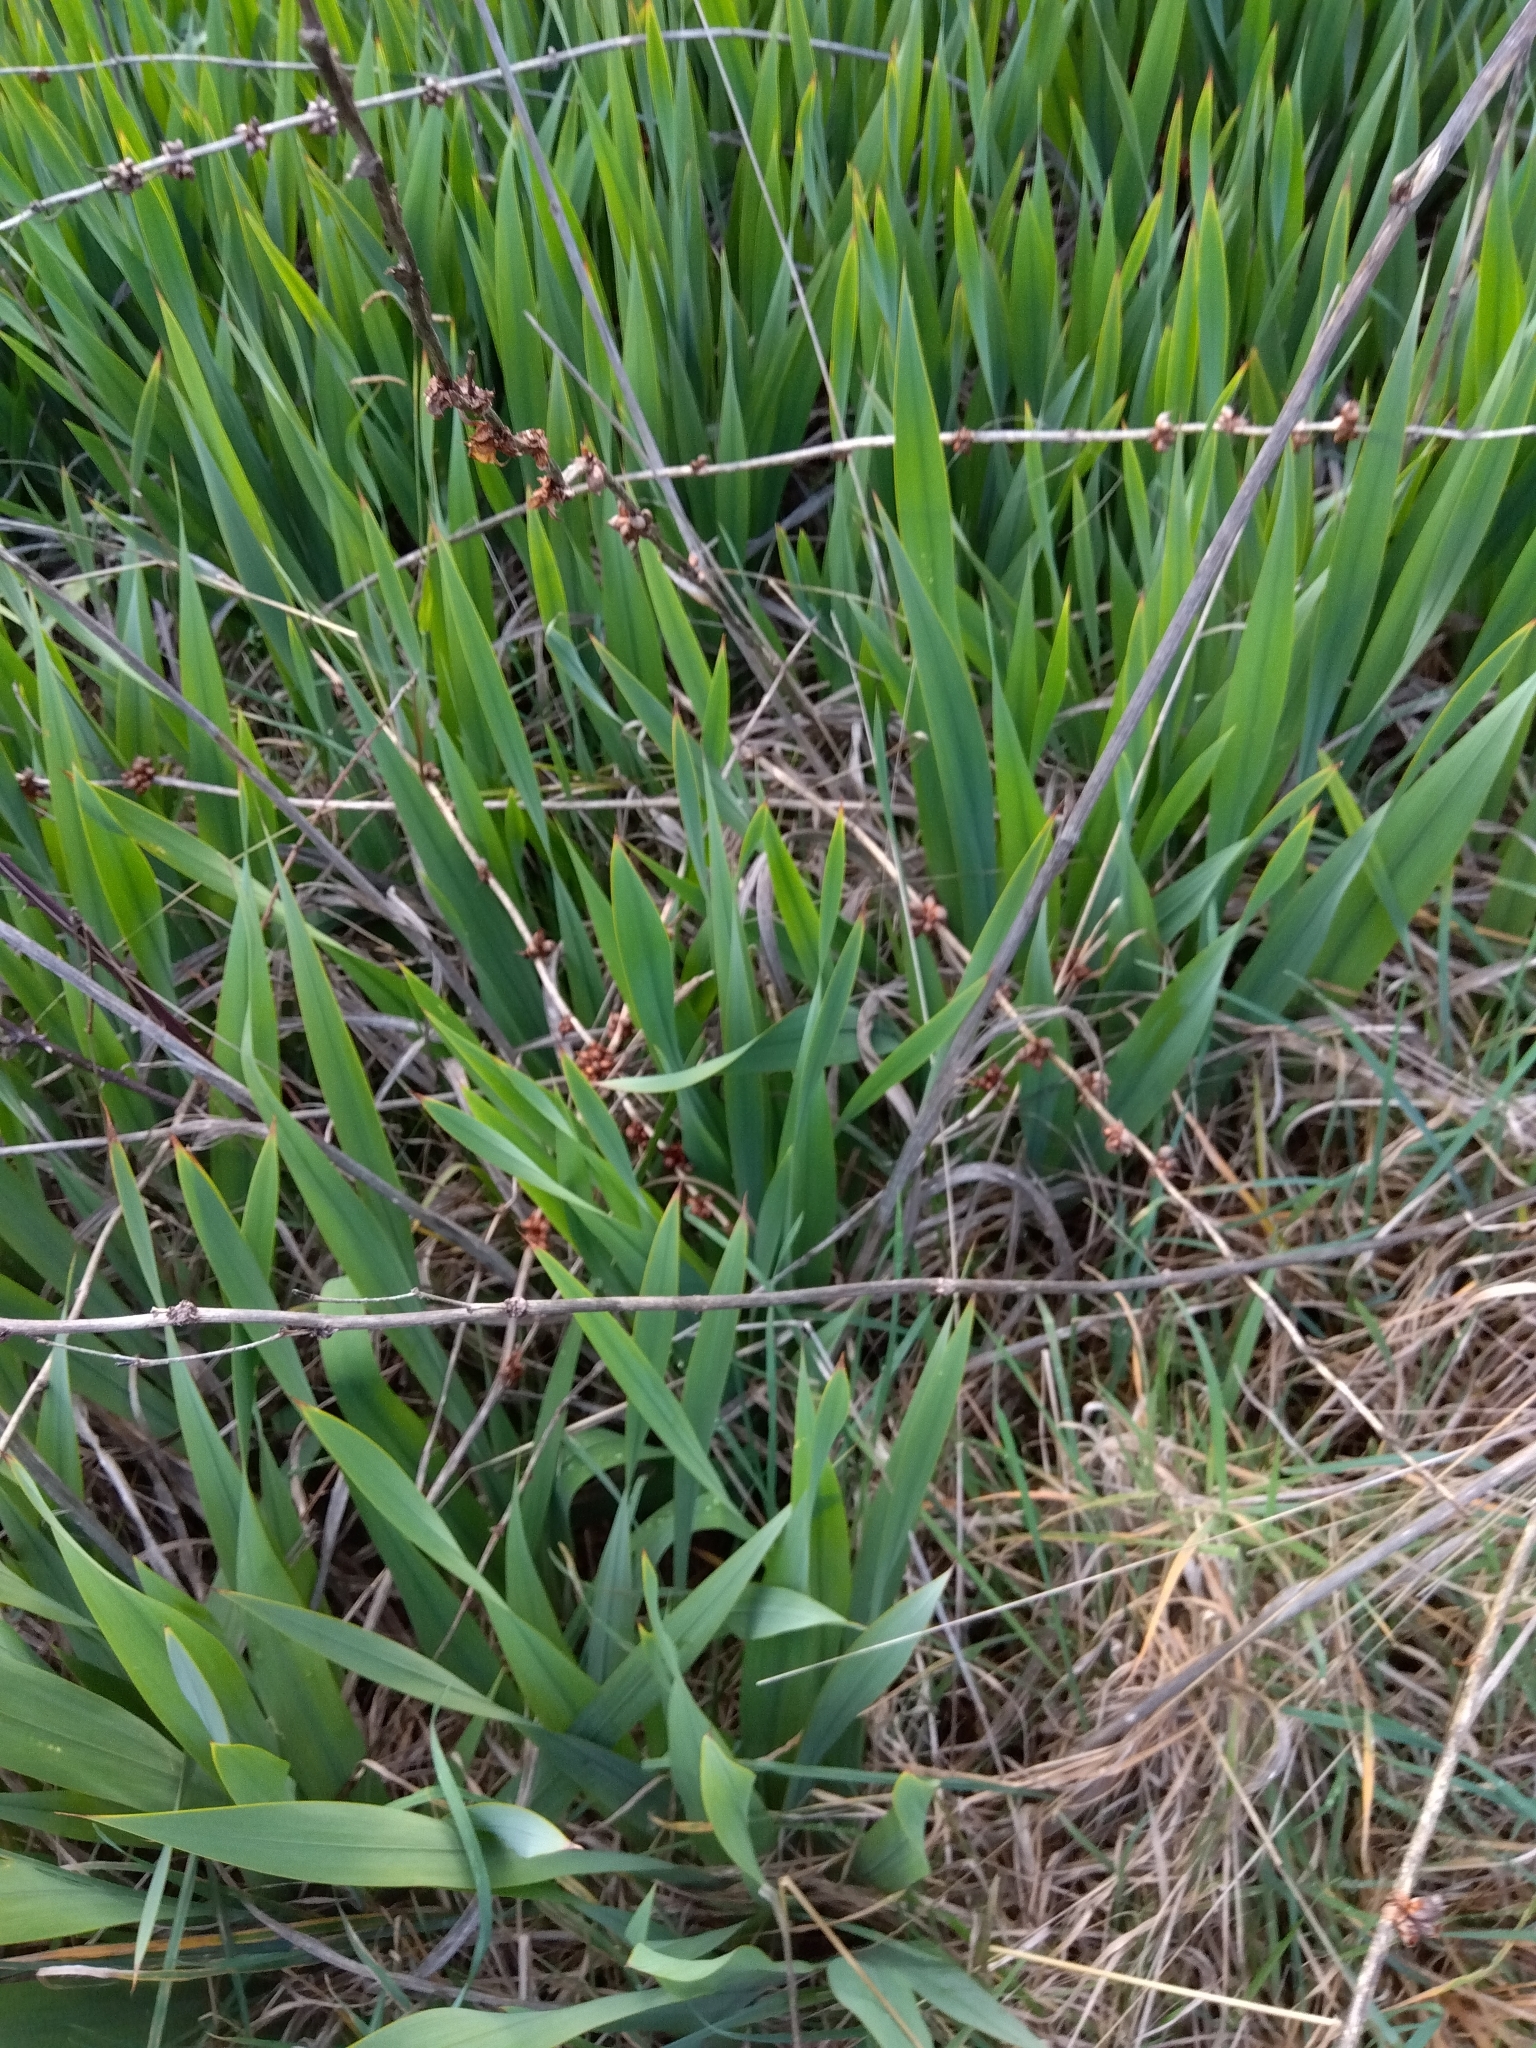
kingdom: Plantae
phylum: Tracheophyta
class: Liliopsida
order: Asparagales
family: Iridaceae
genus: Watsonia
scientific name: Watsonia meriana
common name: Bulbil bugle-lily
